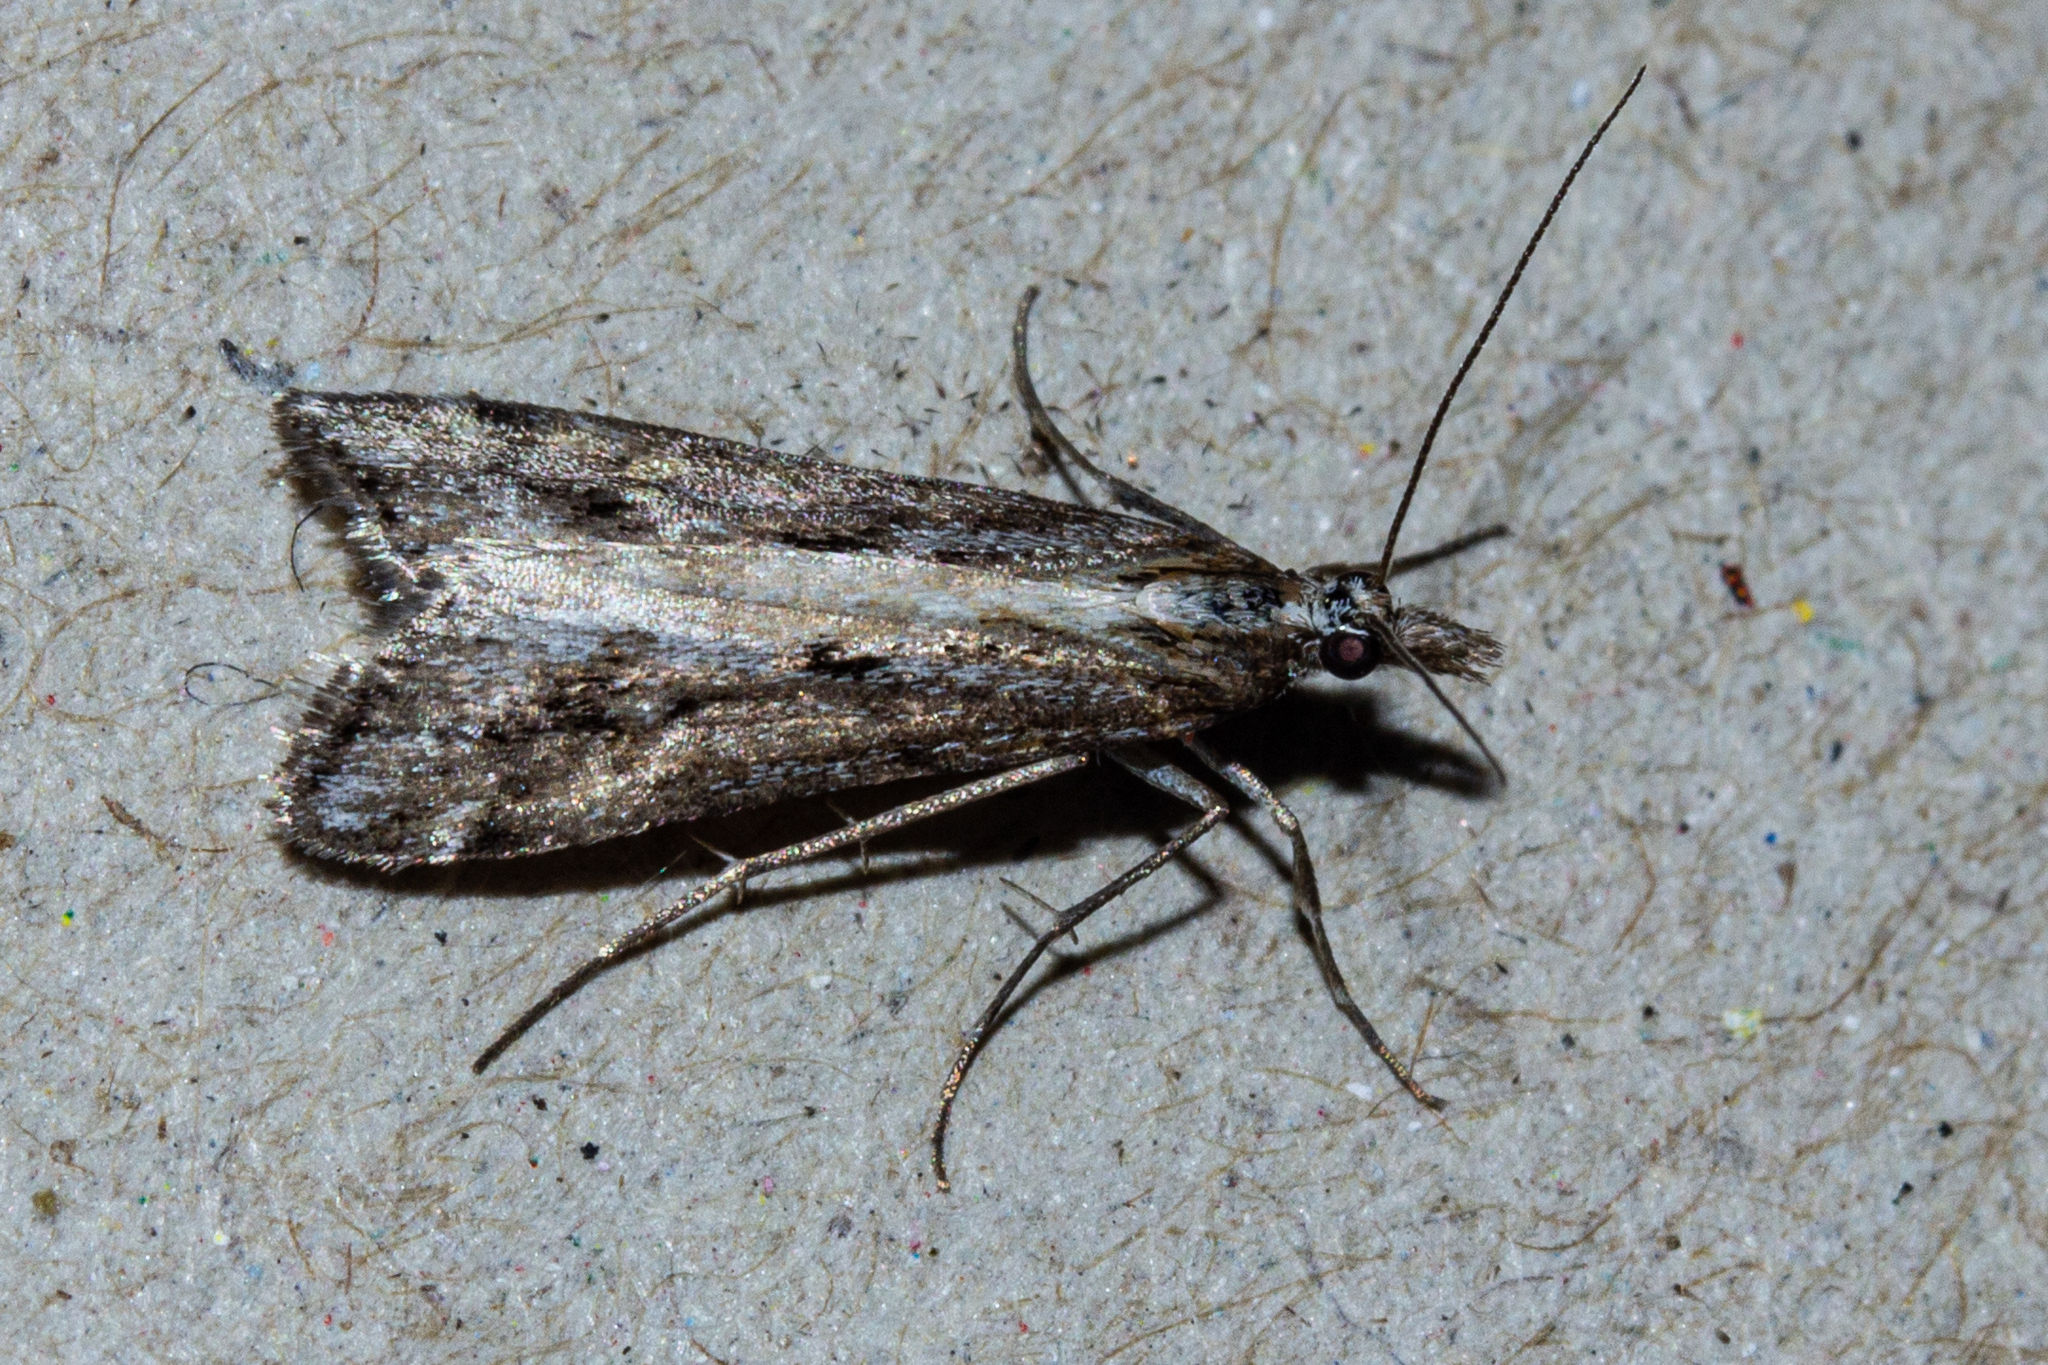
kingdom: Animalia
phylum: Arthropoda
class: Insecta
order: Lepidoptera
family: Crambidae
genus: Scoparia
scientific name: Scoparia exilis
